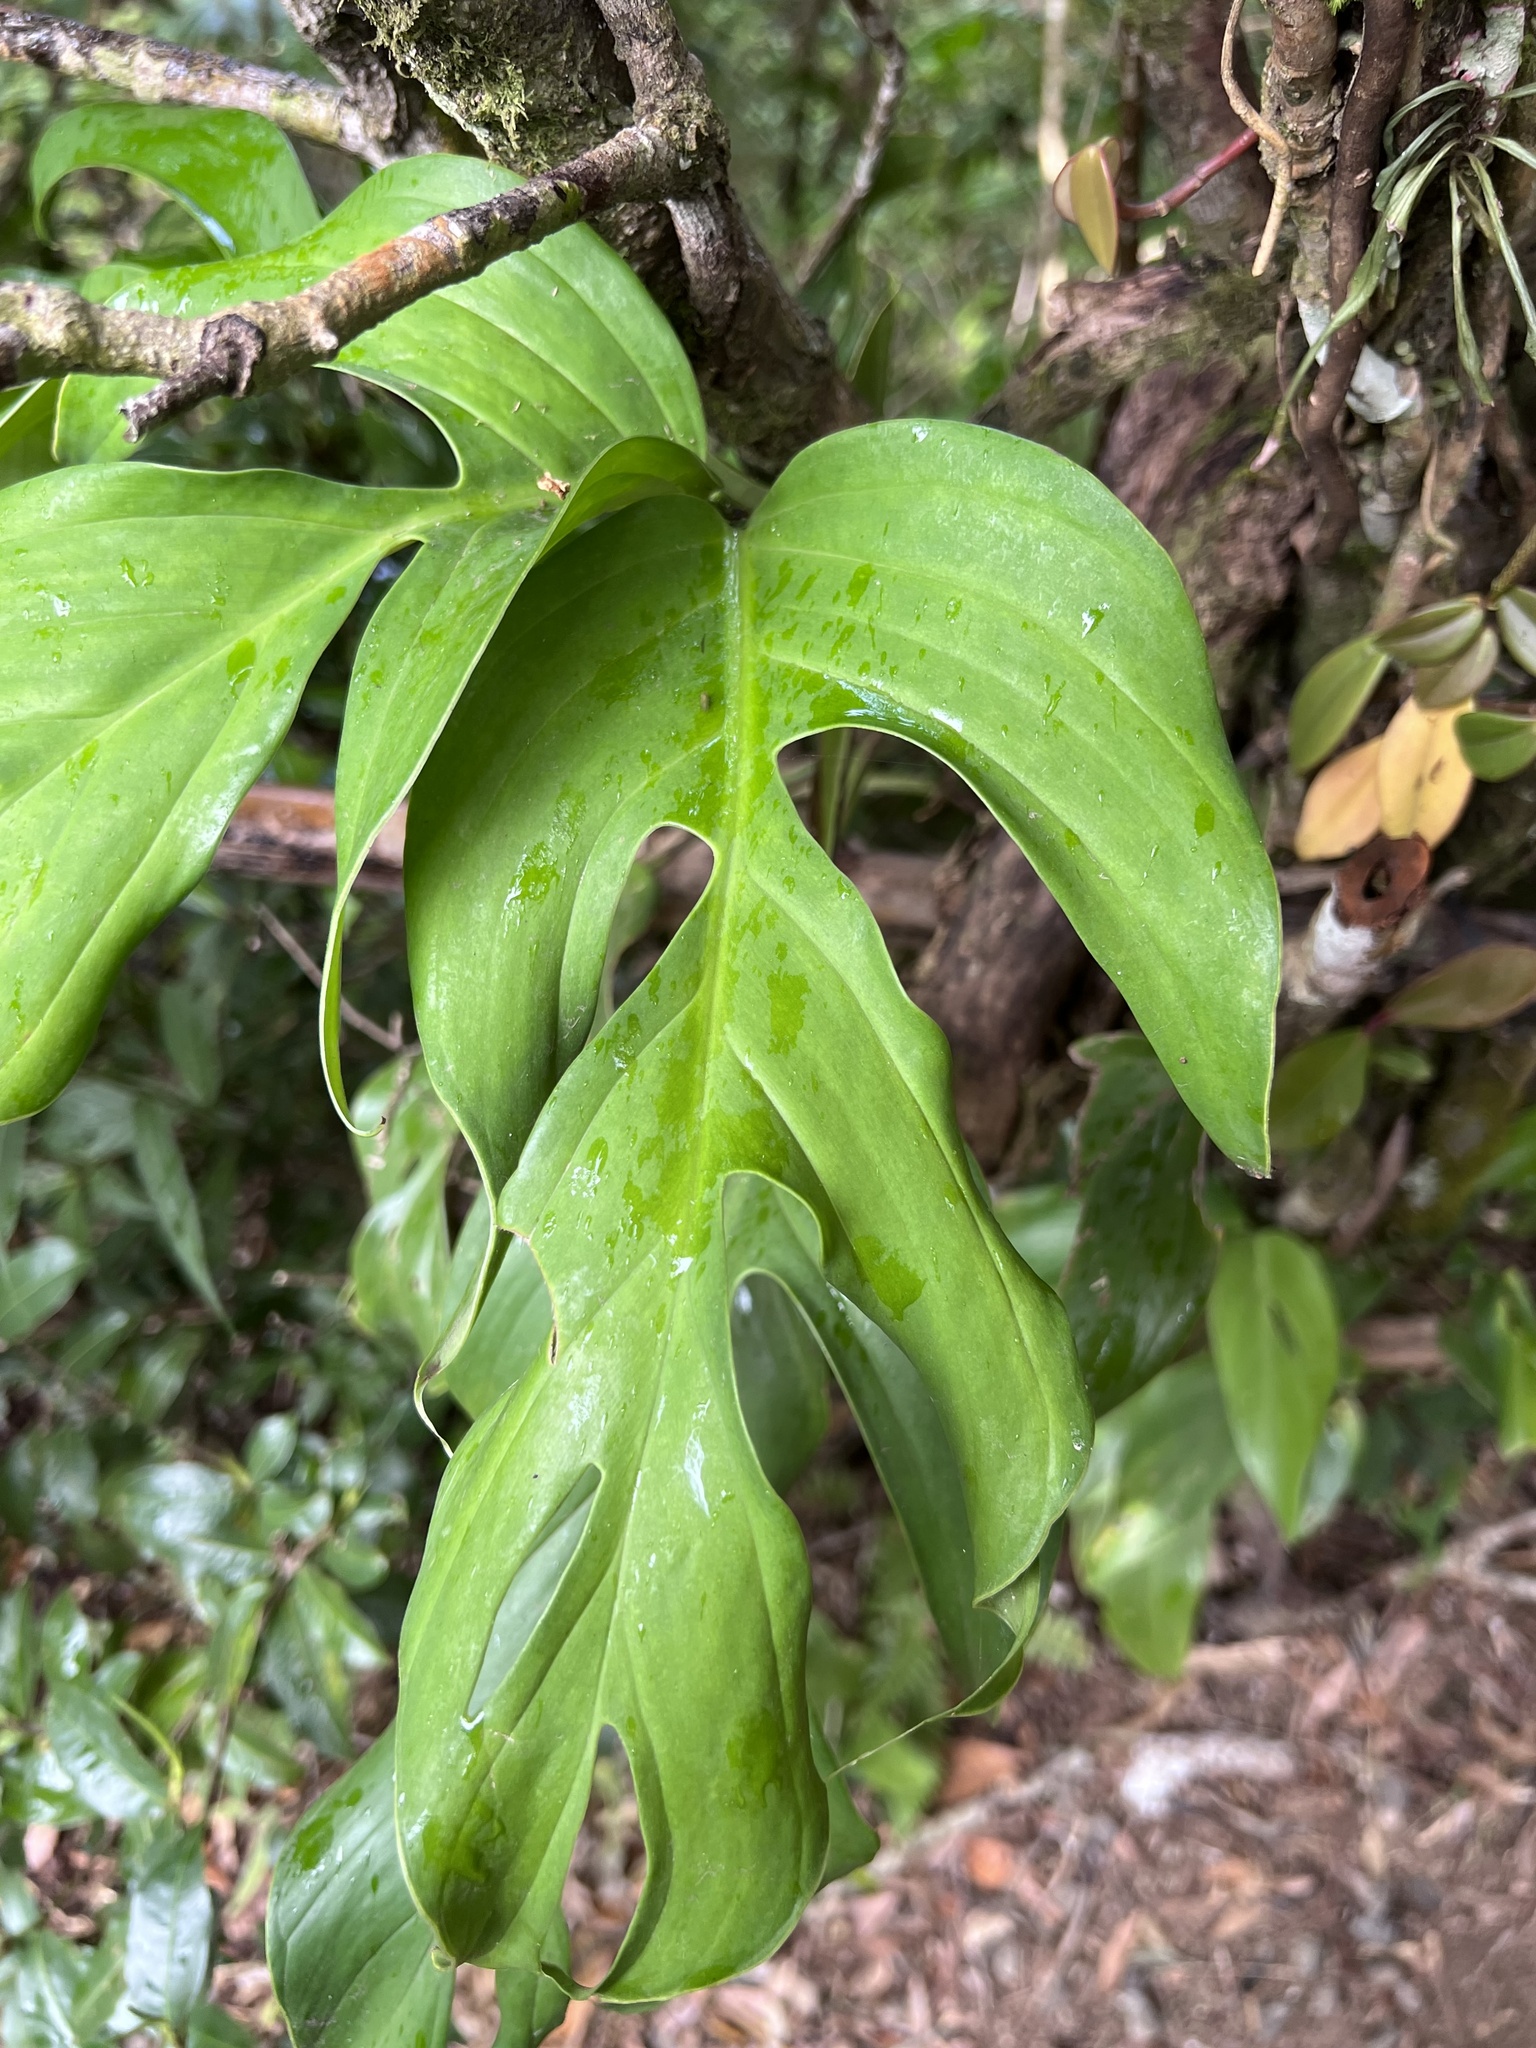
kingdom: Plantae
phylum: Tracheophyta
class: Liliopsida
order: Alismatales
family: Araceae
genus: Monstera
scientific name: Monstera monteverdensis
